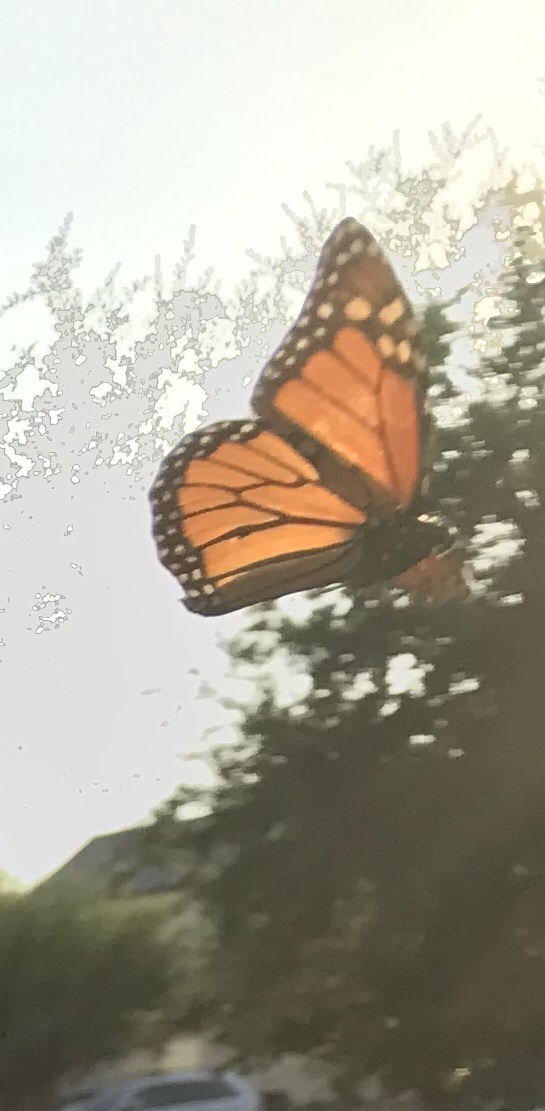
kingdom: Animalia
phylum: Arthropoda
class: Insecta
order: Lepidoptera
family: Nymphalidae
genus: Danaus
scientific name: Danaus plexippus
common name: Monarch
